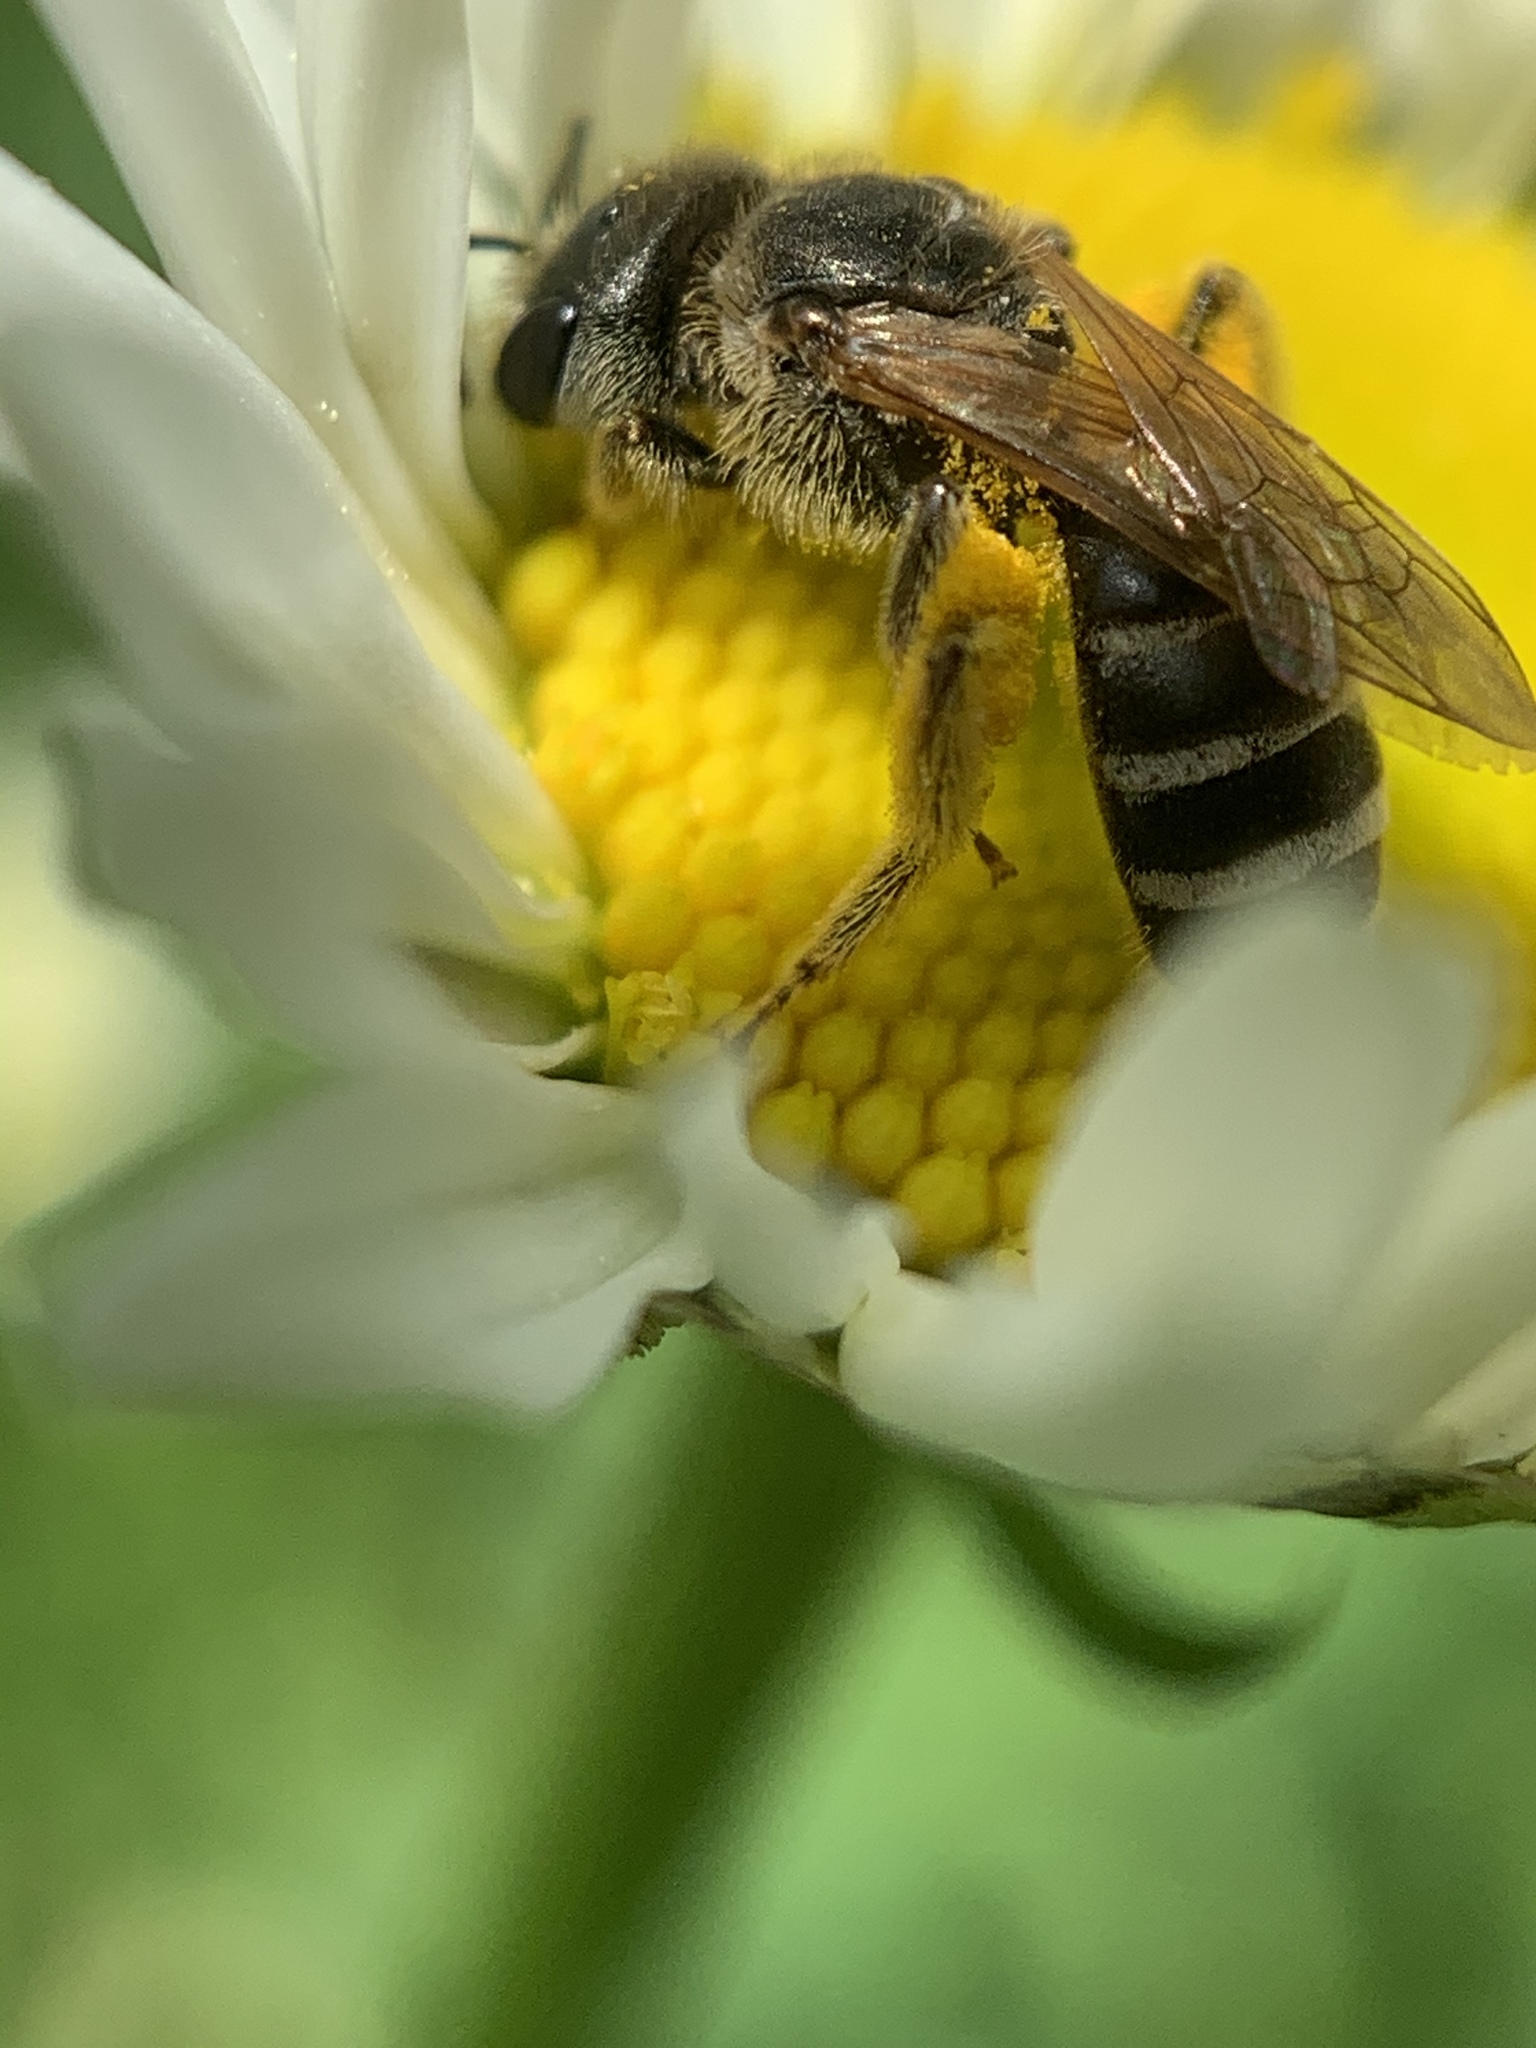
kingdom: Animalia
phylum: Arthropoda
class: Insecta
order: Hymenoptera
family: Halictidae
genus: Halictus
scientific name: Halictus ligatus
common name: Ligated furrow bee
